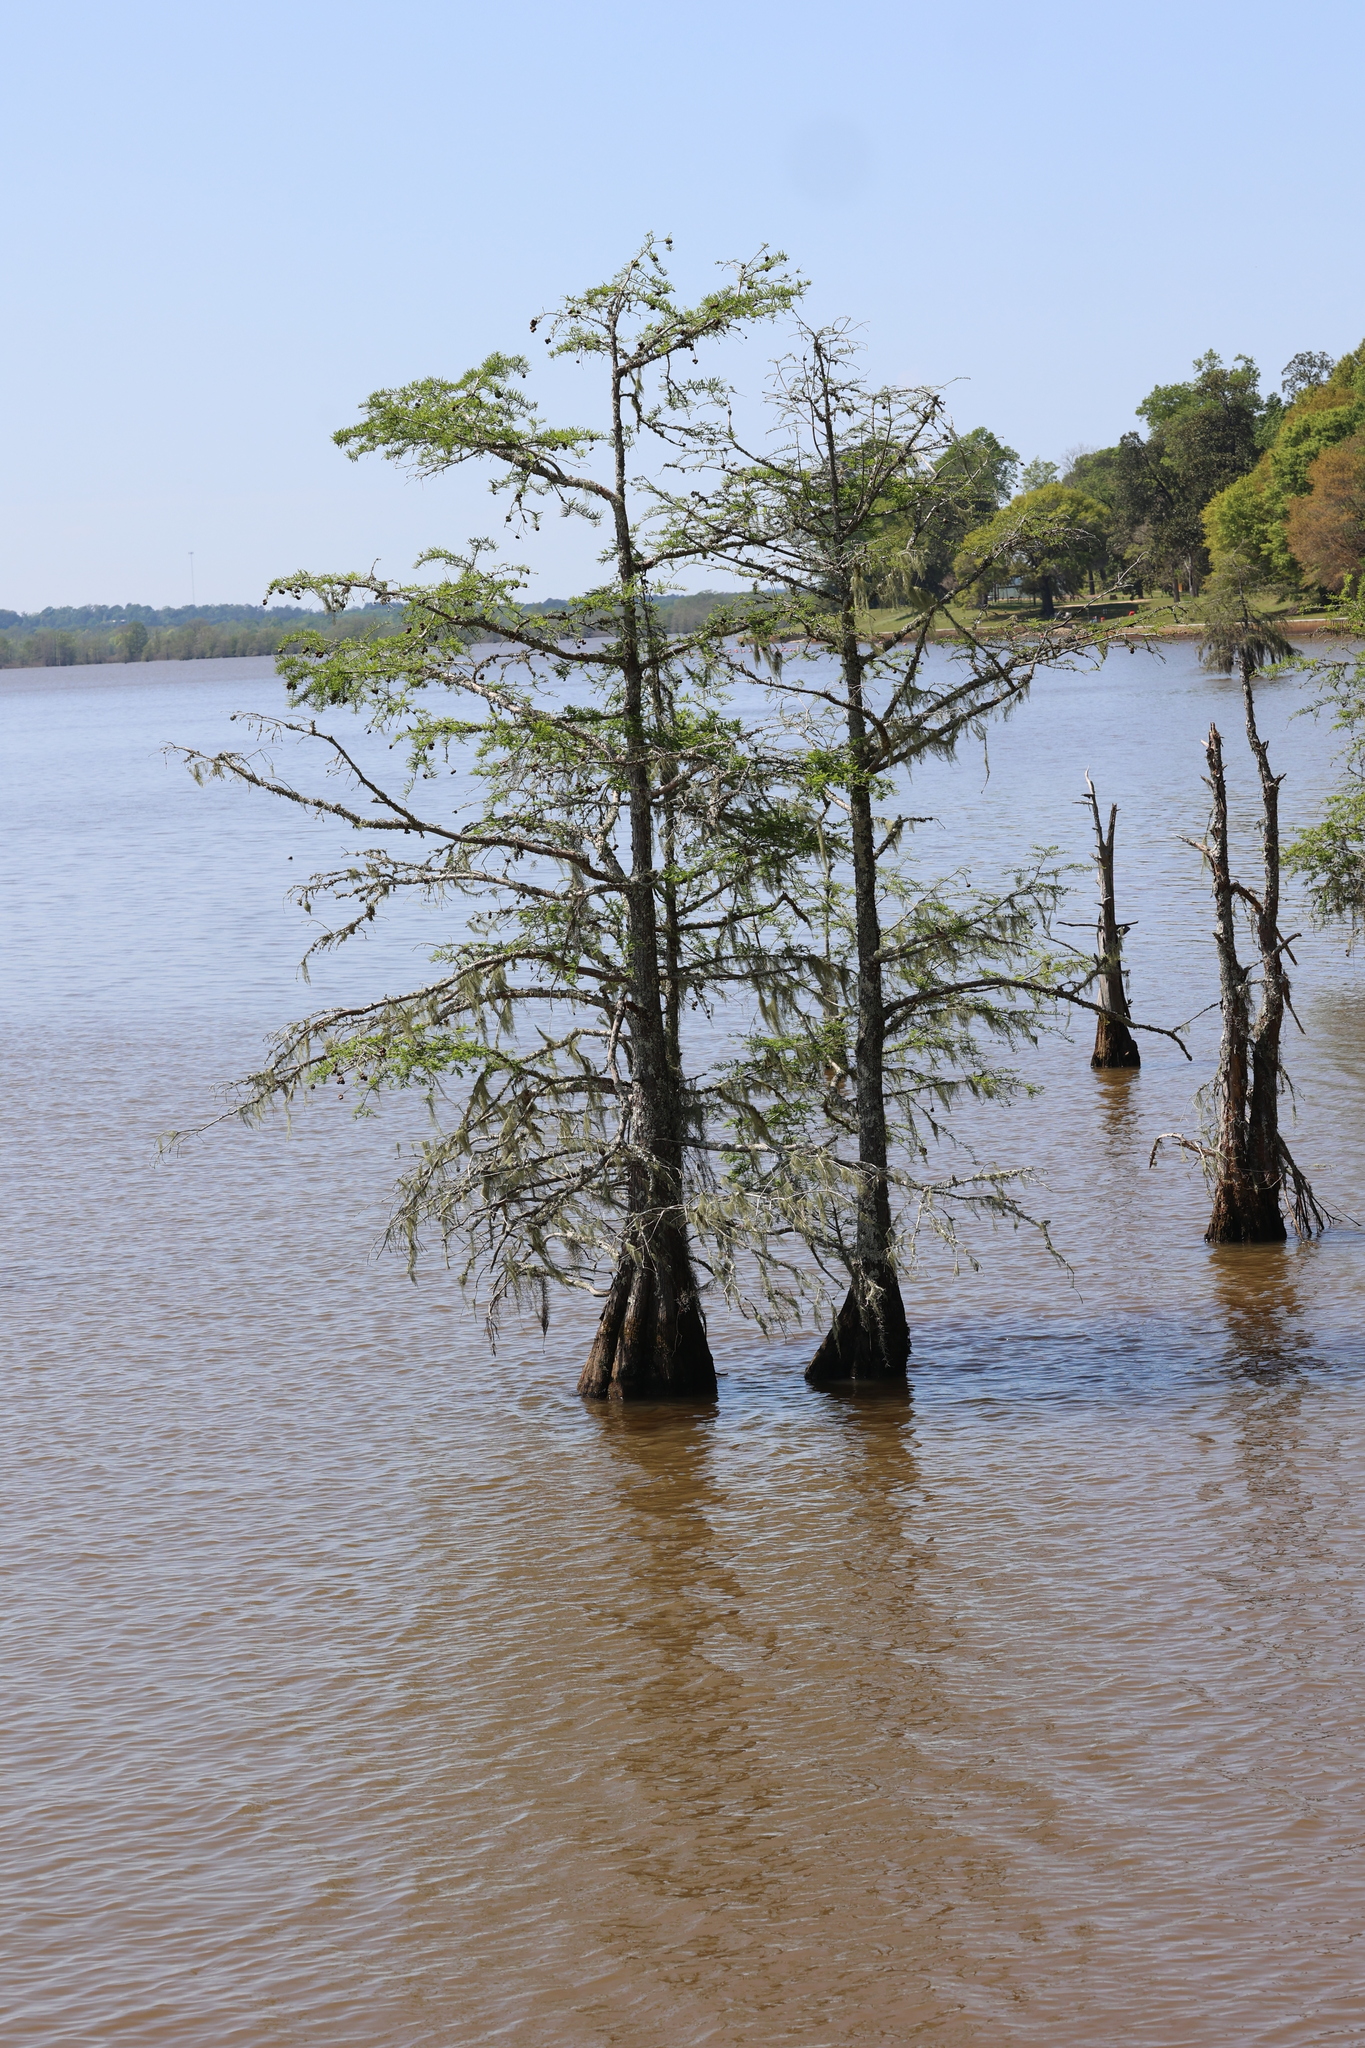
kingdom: Plantae
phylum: Tracheophyta
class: Pinopsida
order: Pinales
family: Cupressaceae
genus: Taxodium
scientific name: Taxodium distichum
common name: Bald cypress
